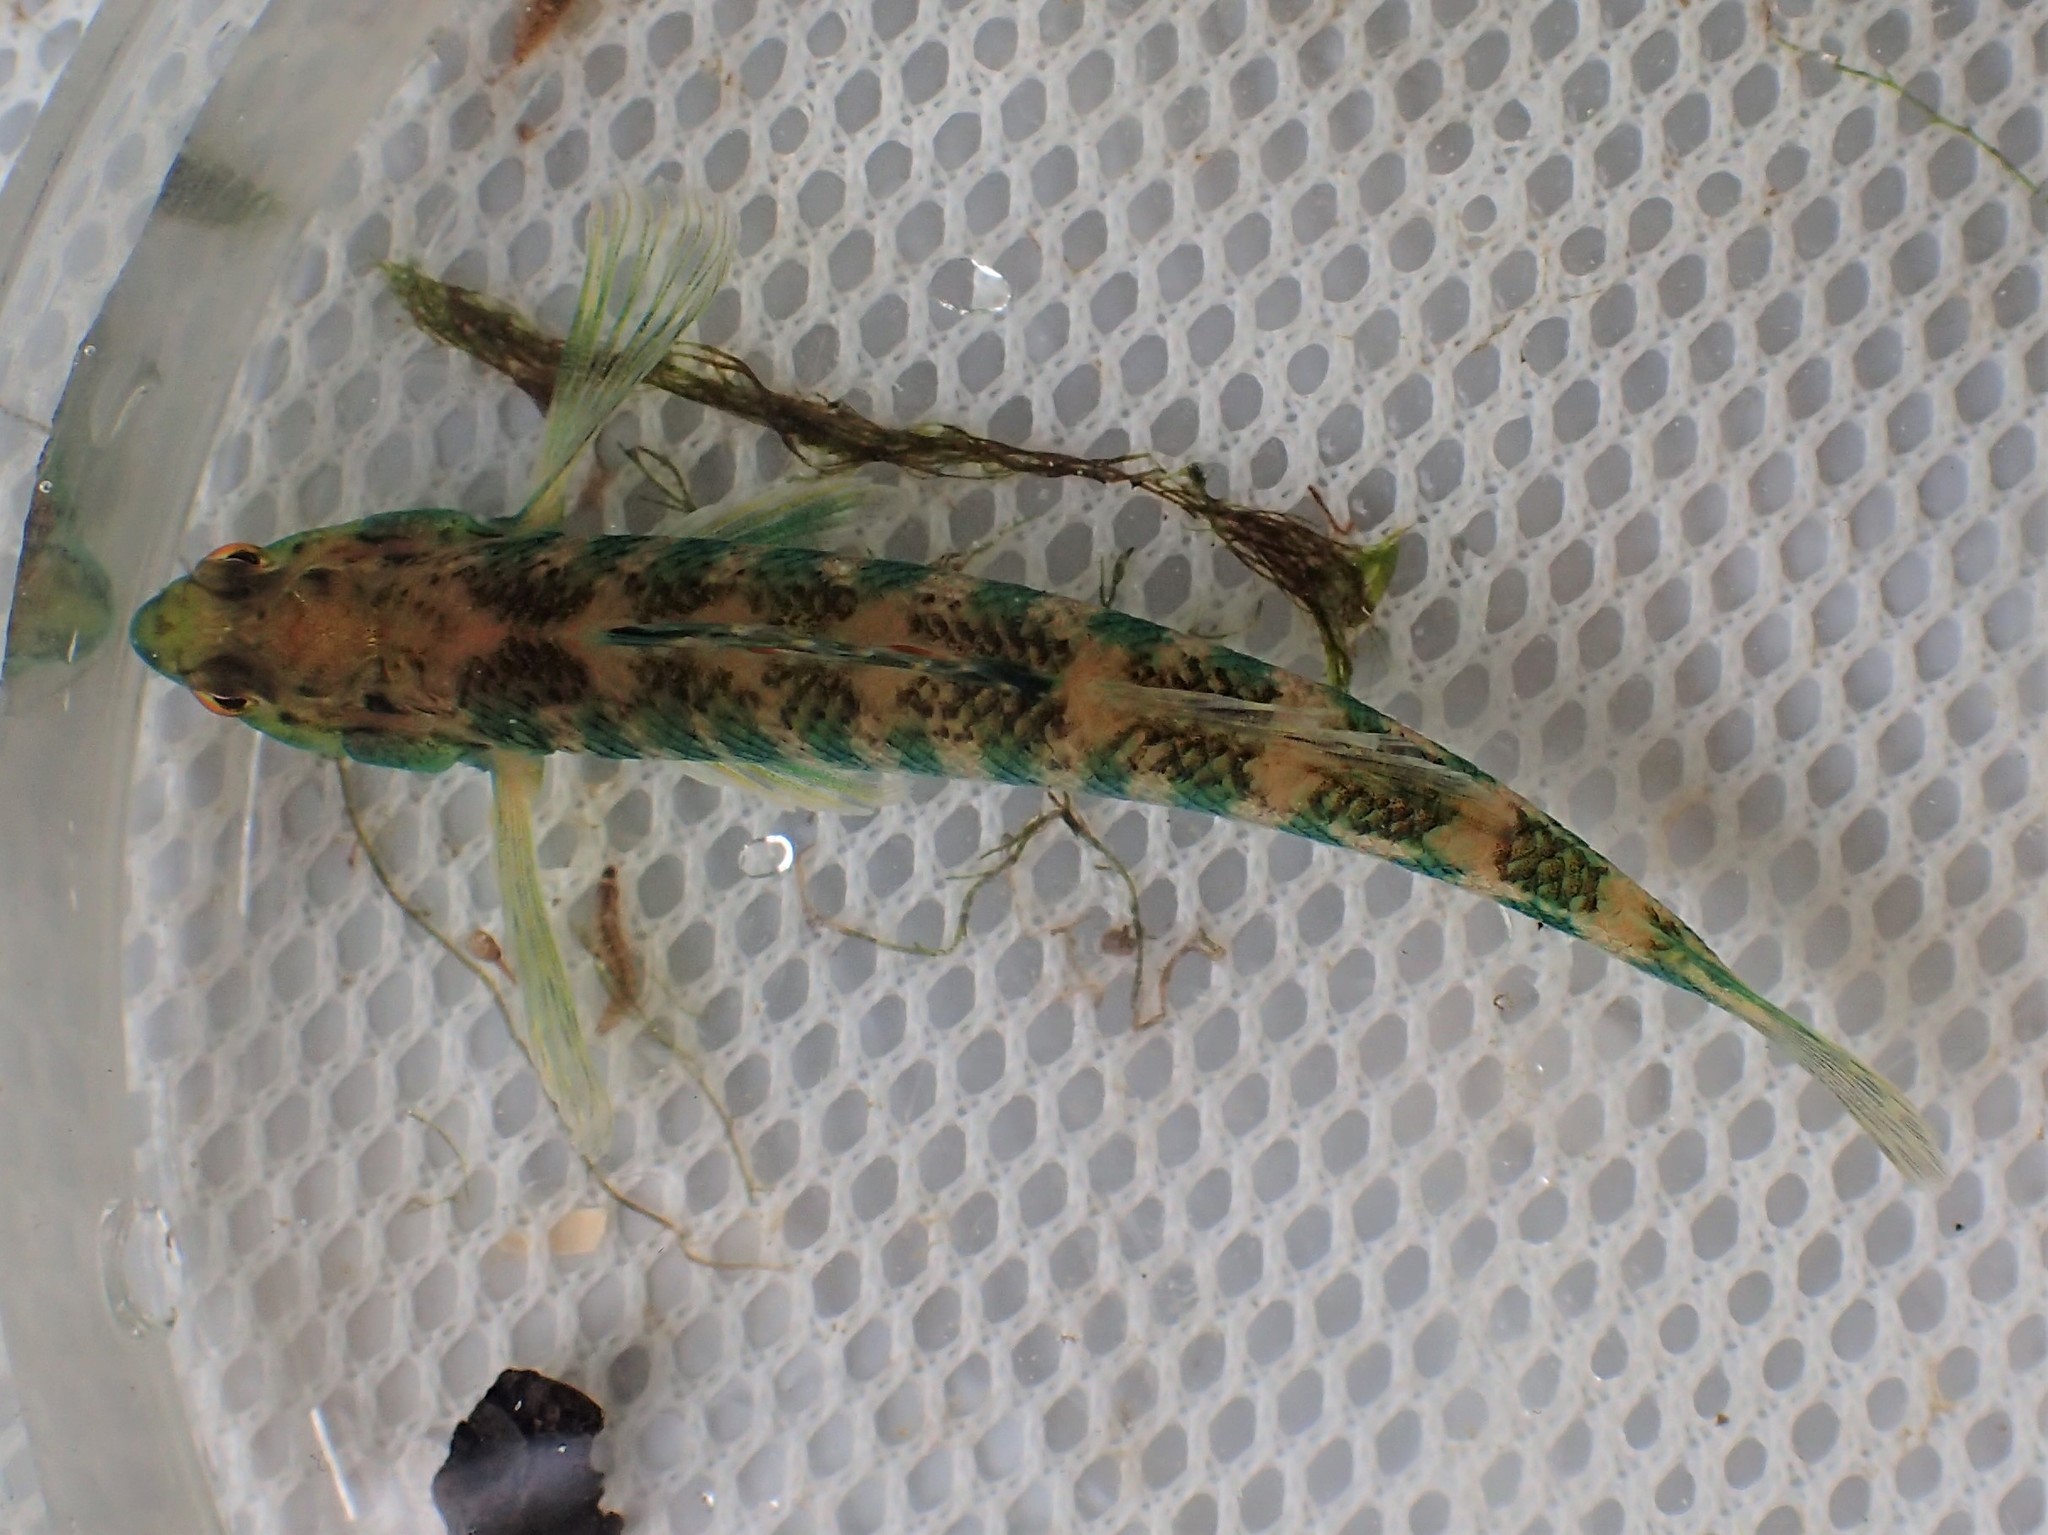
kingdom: Animalia
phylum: Chordata
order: Perciformes
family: Percidae
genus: Etheostoma
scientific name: Etheostoma zonale
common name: Banded darter
